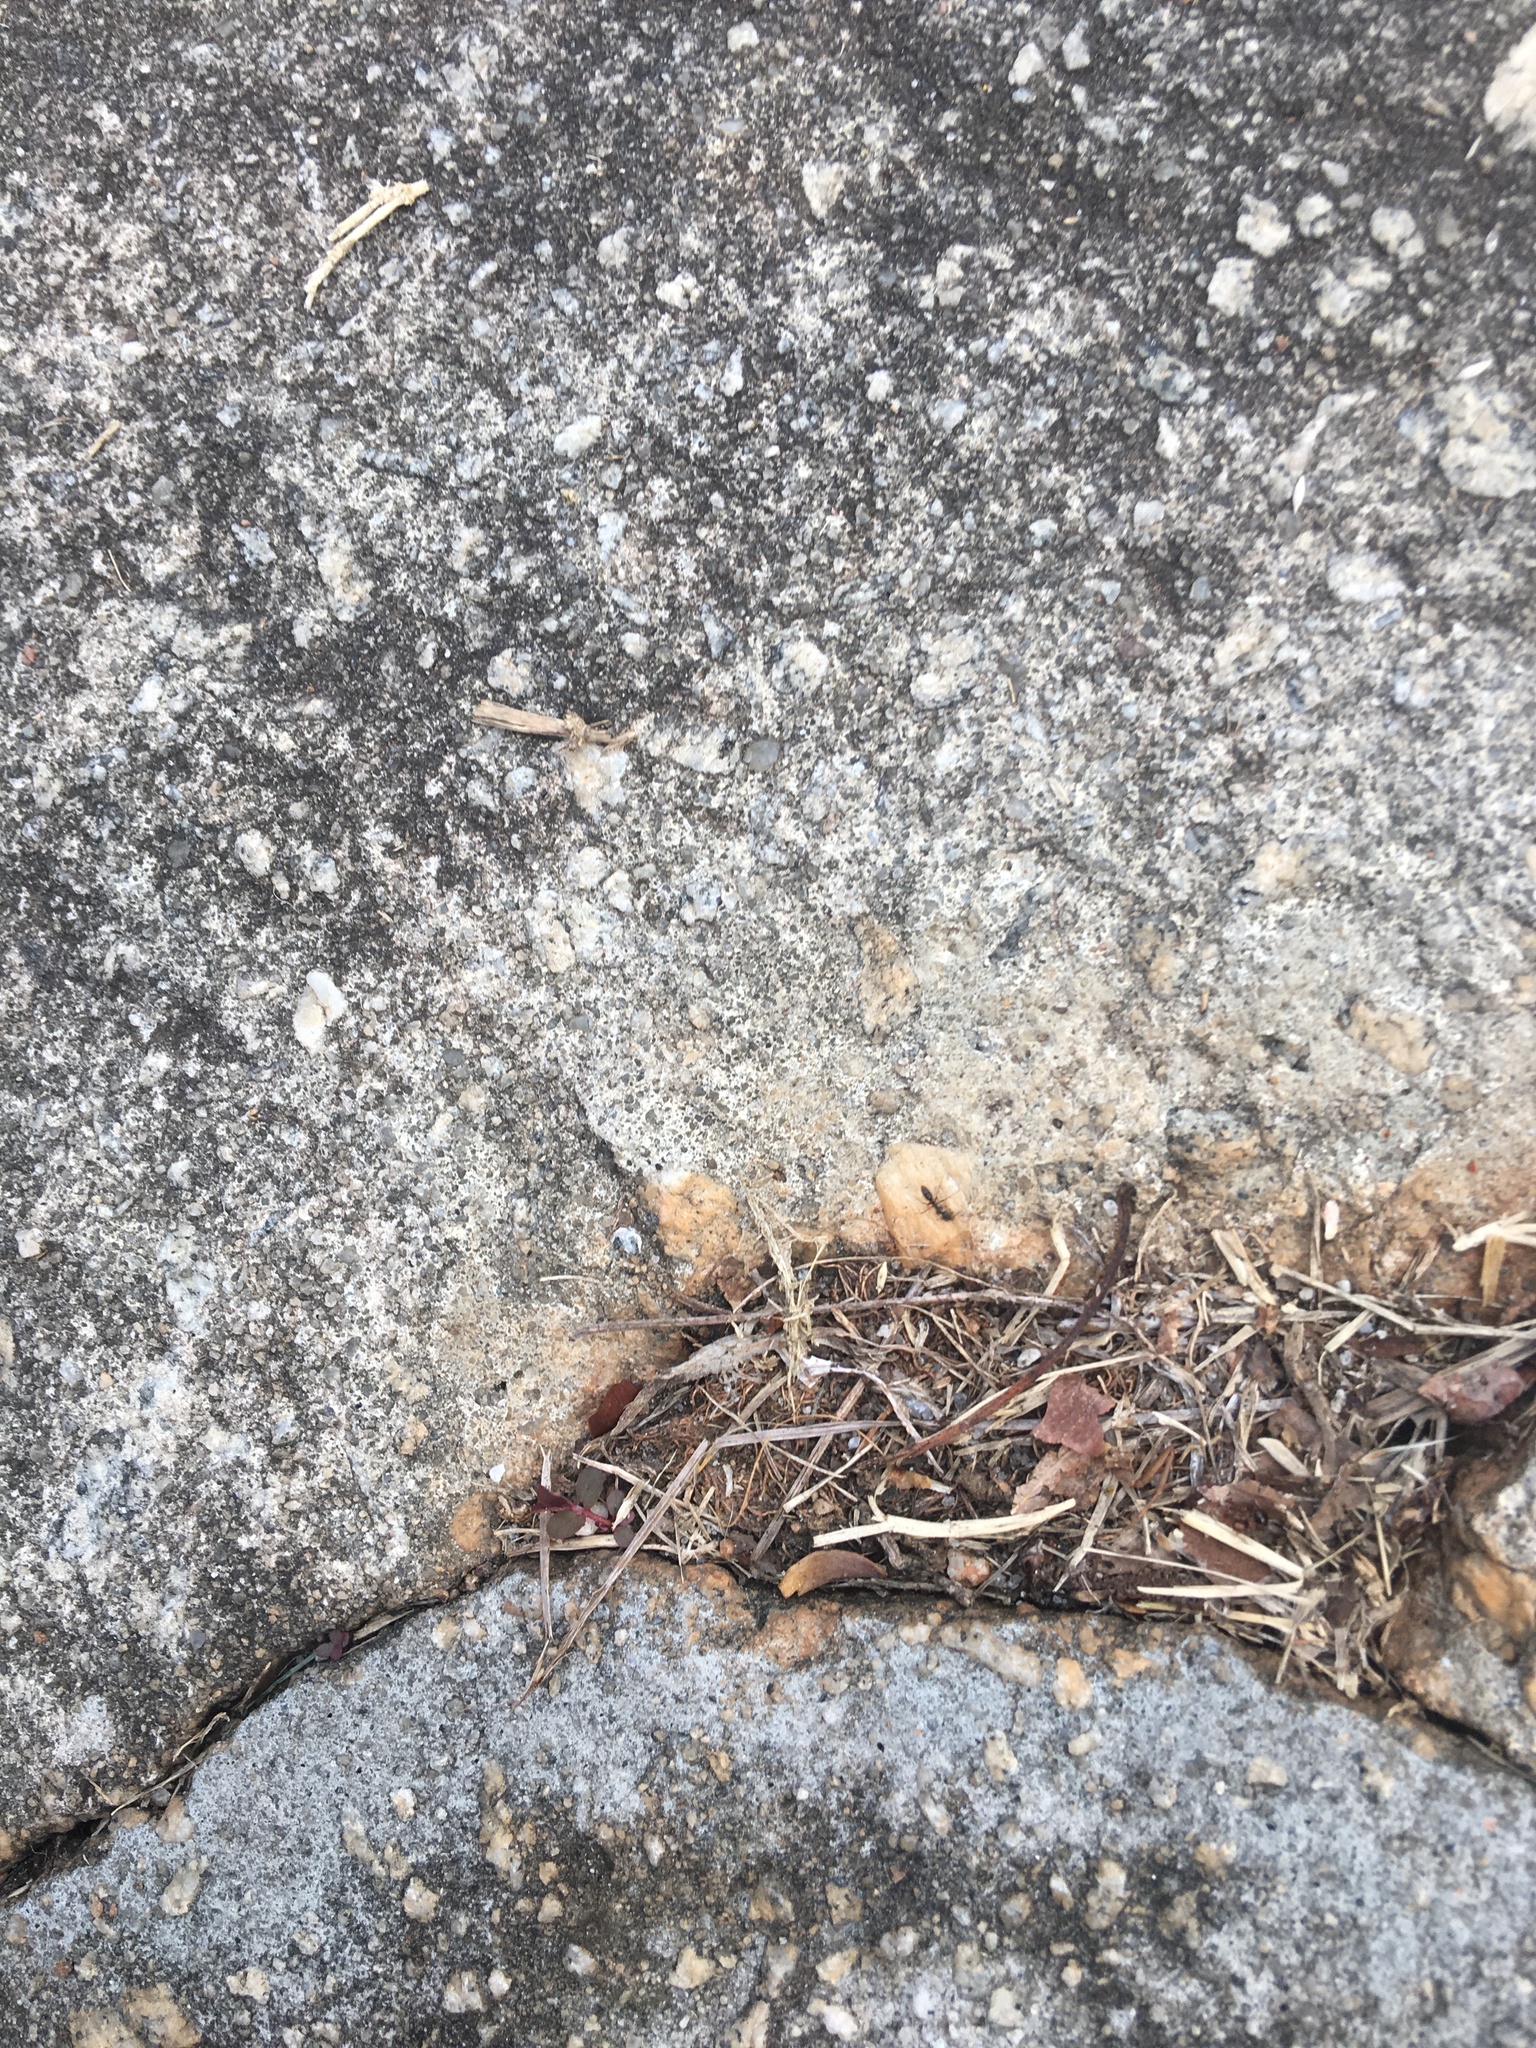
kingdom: Animalia
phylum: Arthropoda
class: Insecta
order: Hymenoptera
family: Formicidae
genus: Pachycondyla
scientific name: Pachycondyla chinensis
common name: Asian needle ant
